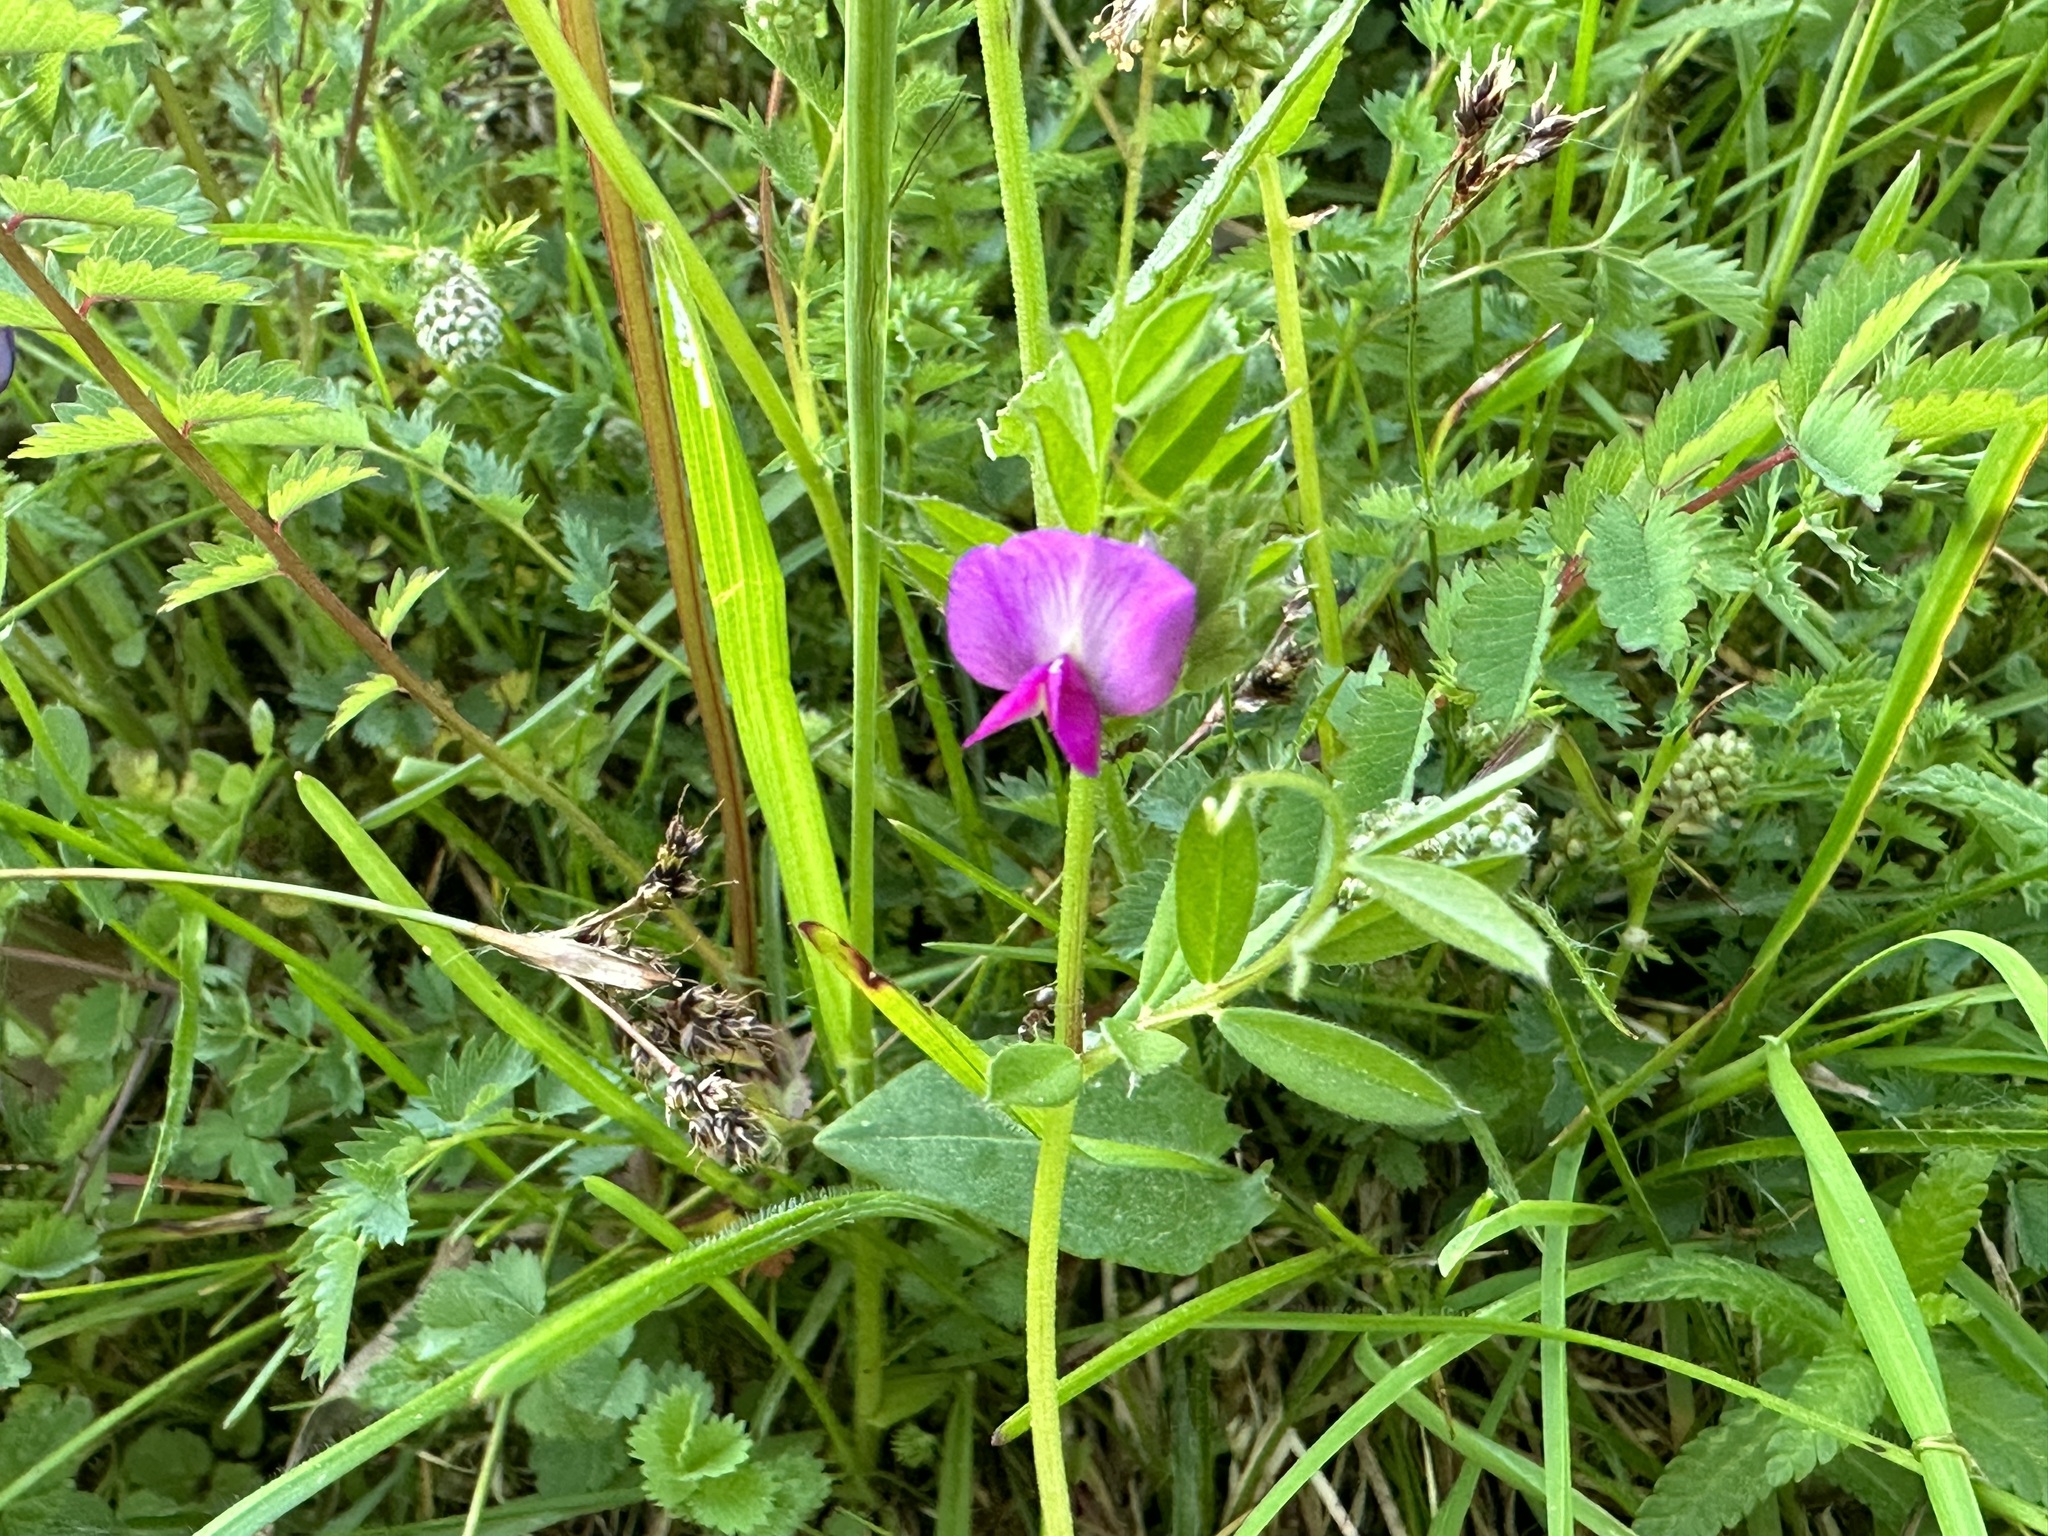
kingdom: Plantae
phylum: Tracheophyta
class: Magnoliopsida
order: Fabales
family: Fabaceae
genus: Vicia
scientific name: Vicia sativa
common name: Garden vetch
